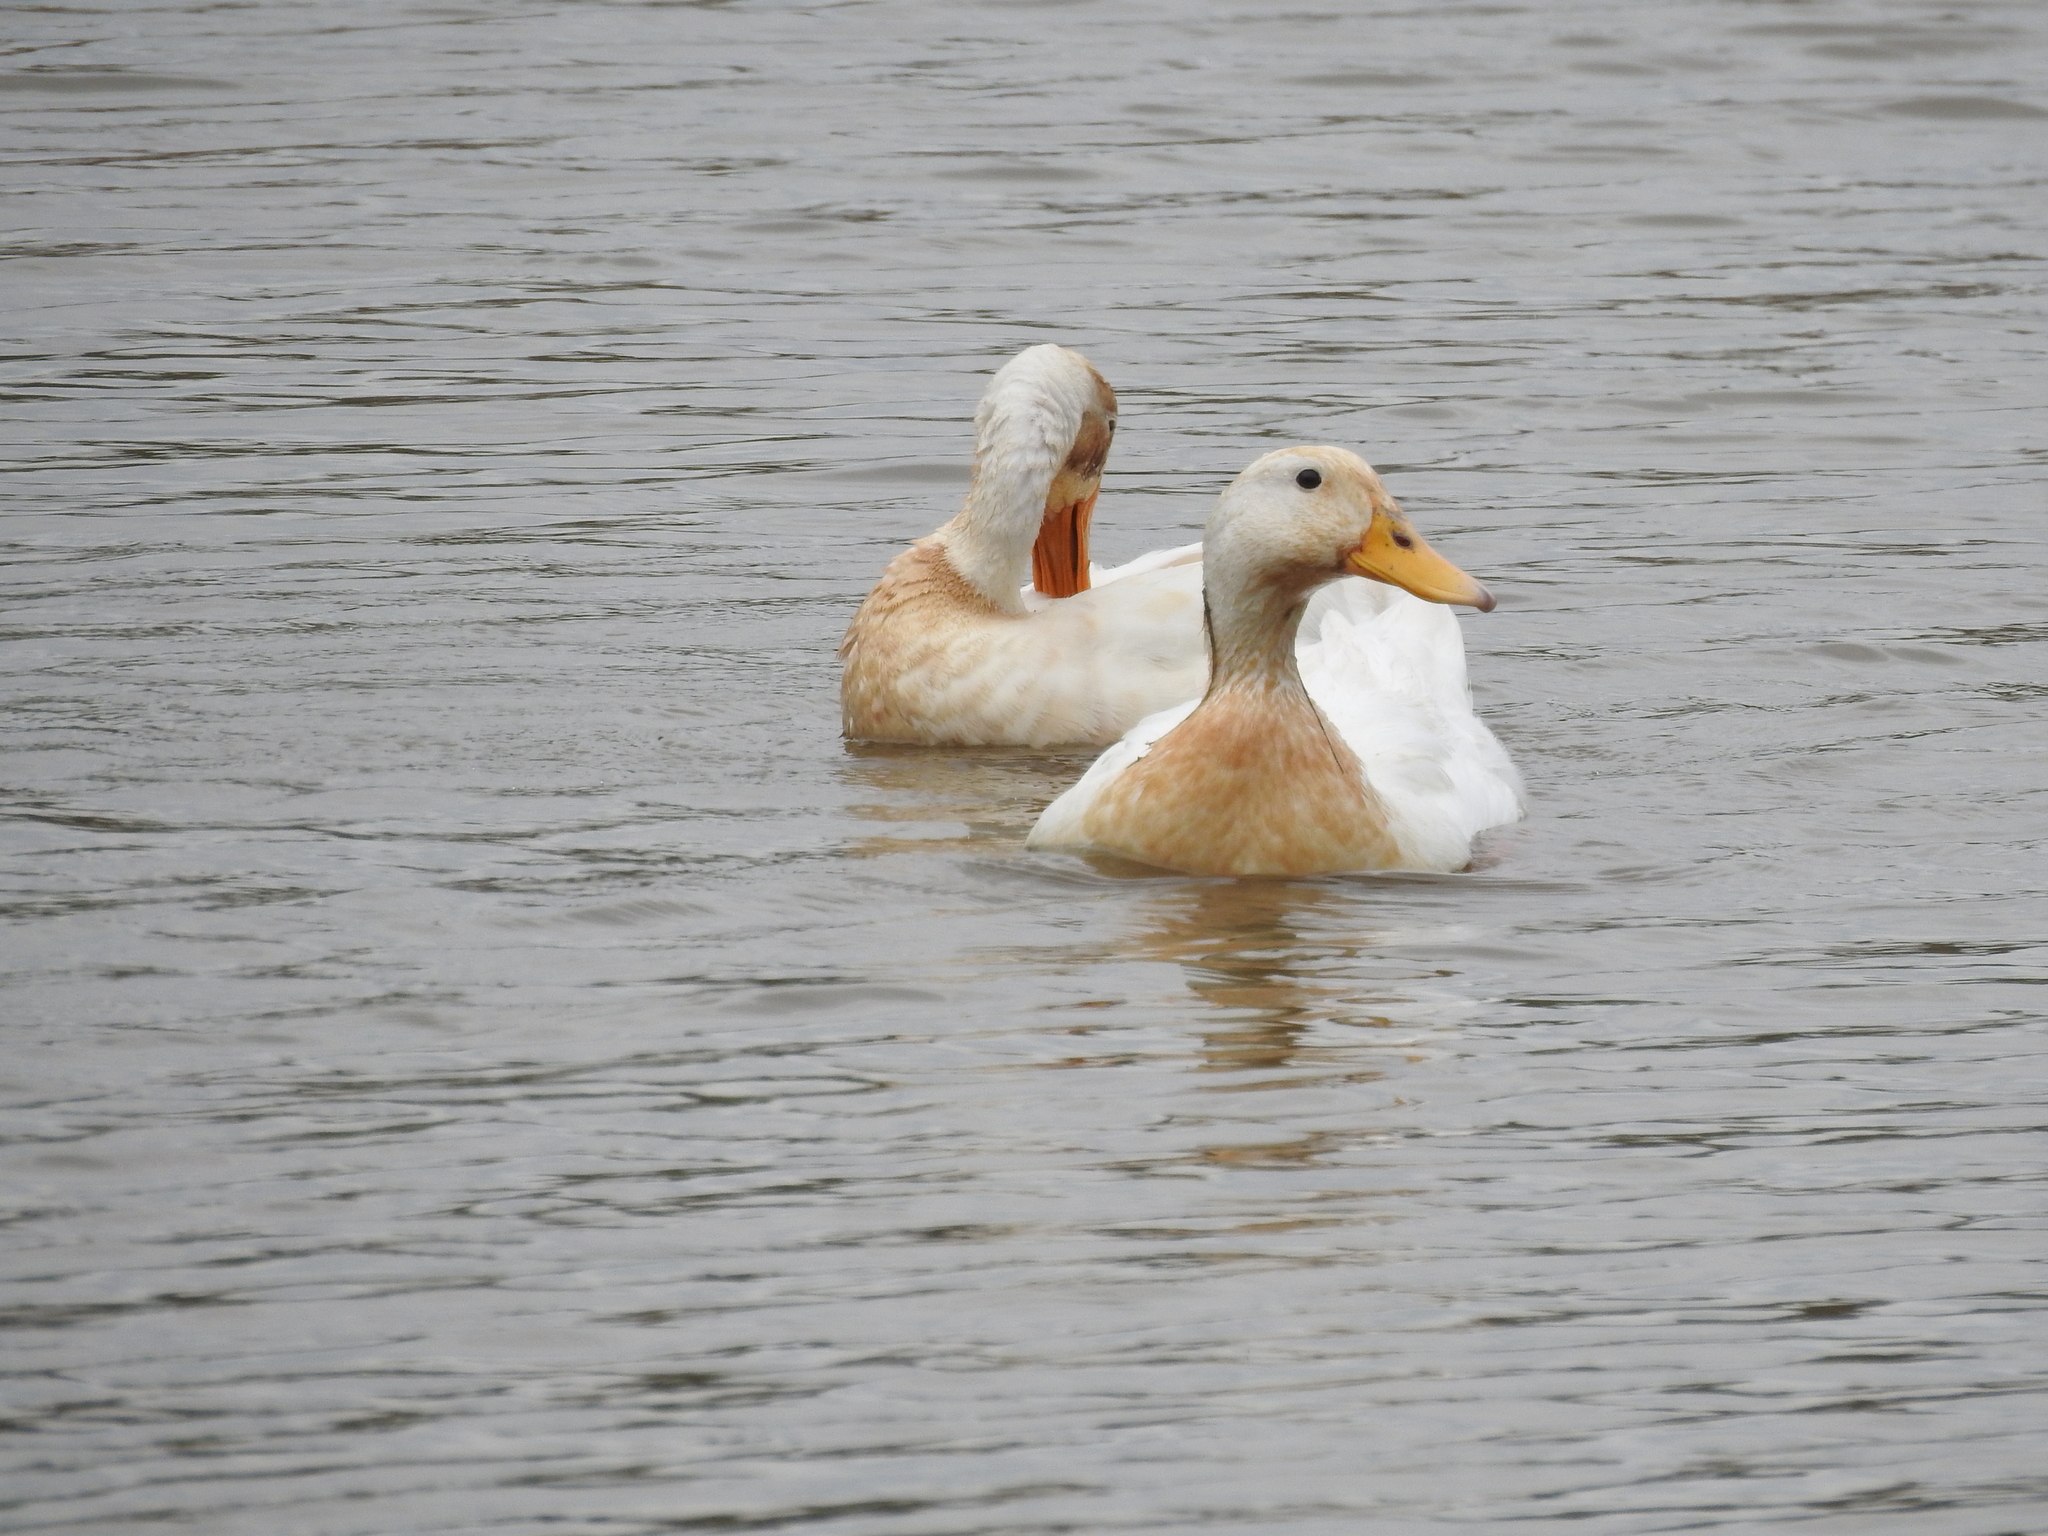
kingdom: Animalia
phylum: Chordata
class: Aves
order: Anseriformes
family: Anatidae
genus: Anas
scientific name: Anas platyrhynchos
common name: Mallard
